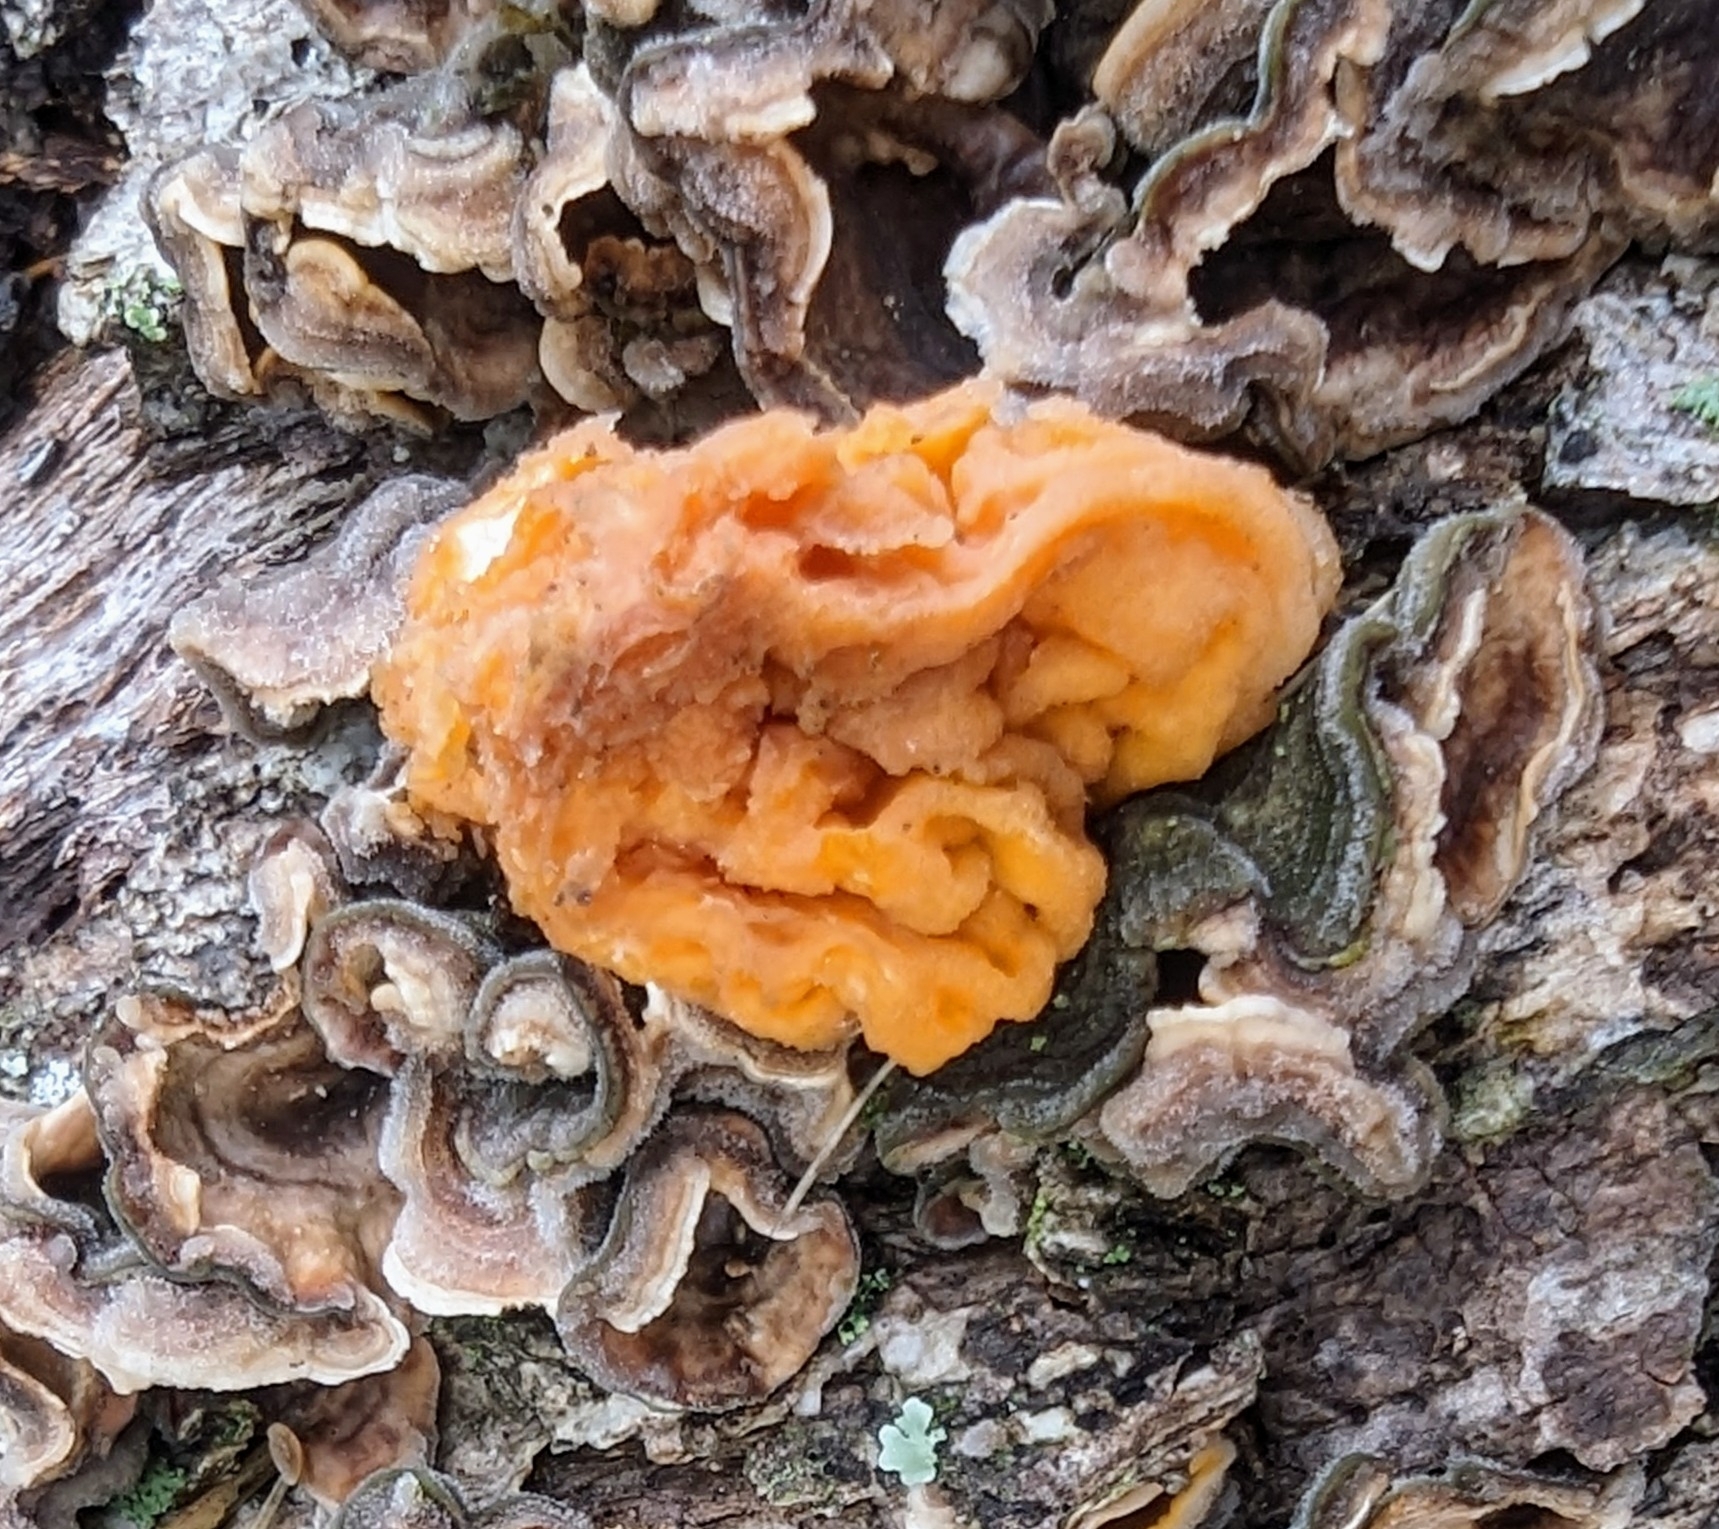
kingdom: Fungi
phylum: Basidiomycota
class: Tremellomycetes
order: Tremellales
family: Naemateliaceae
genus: Naematelia
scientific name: Naematelia aurantia
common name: Golden ear
